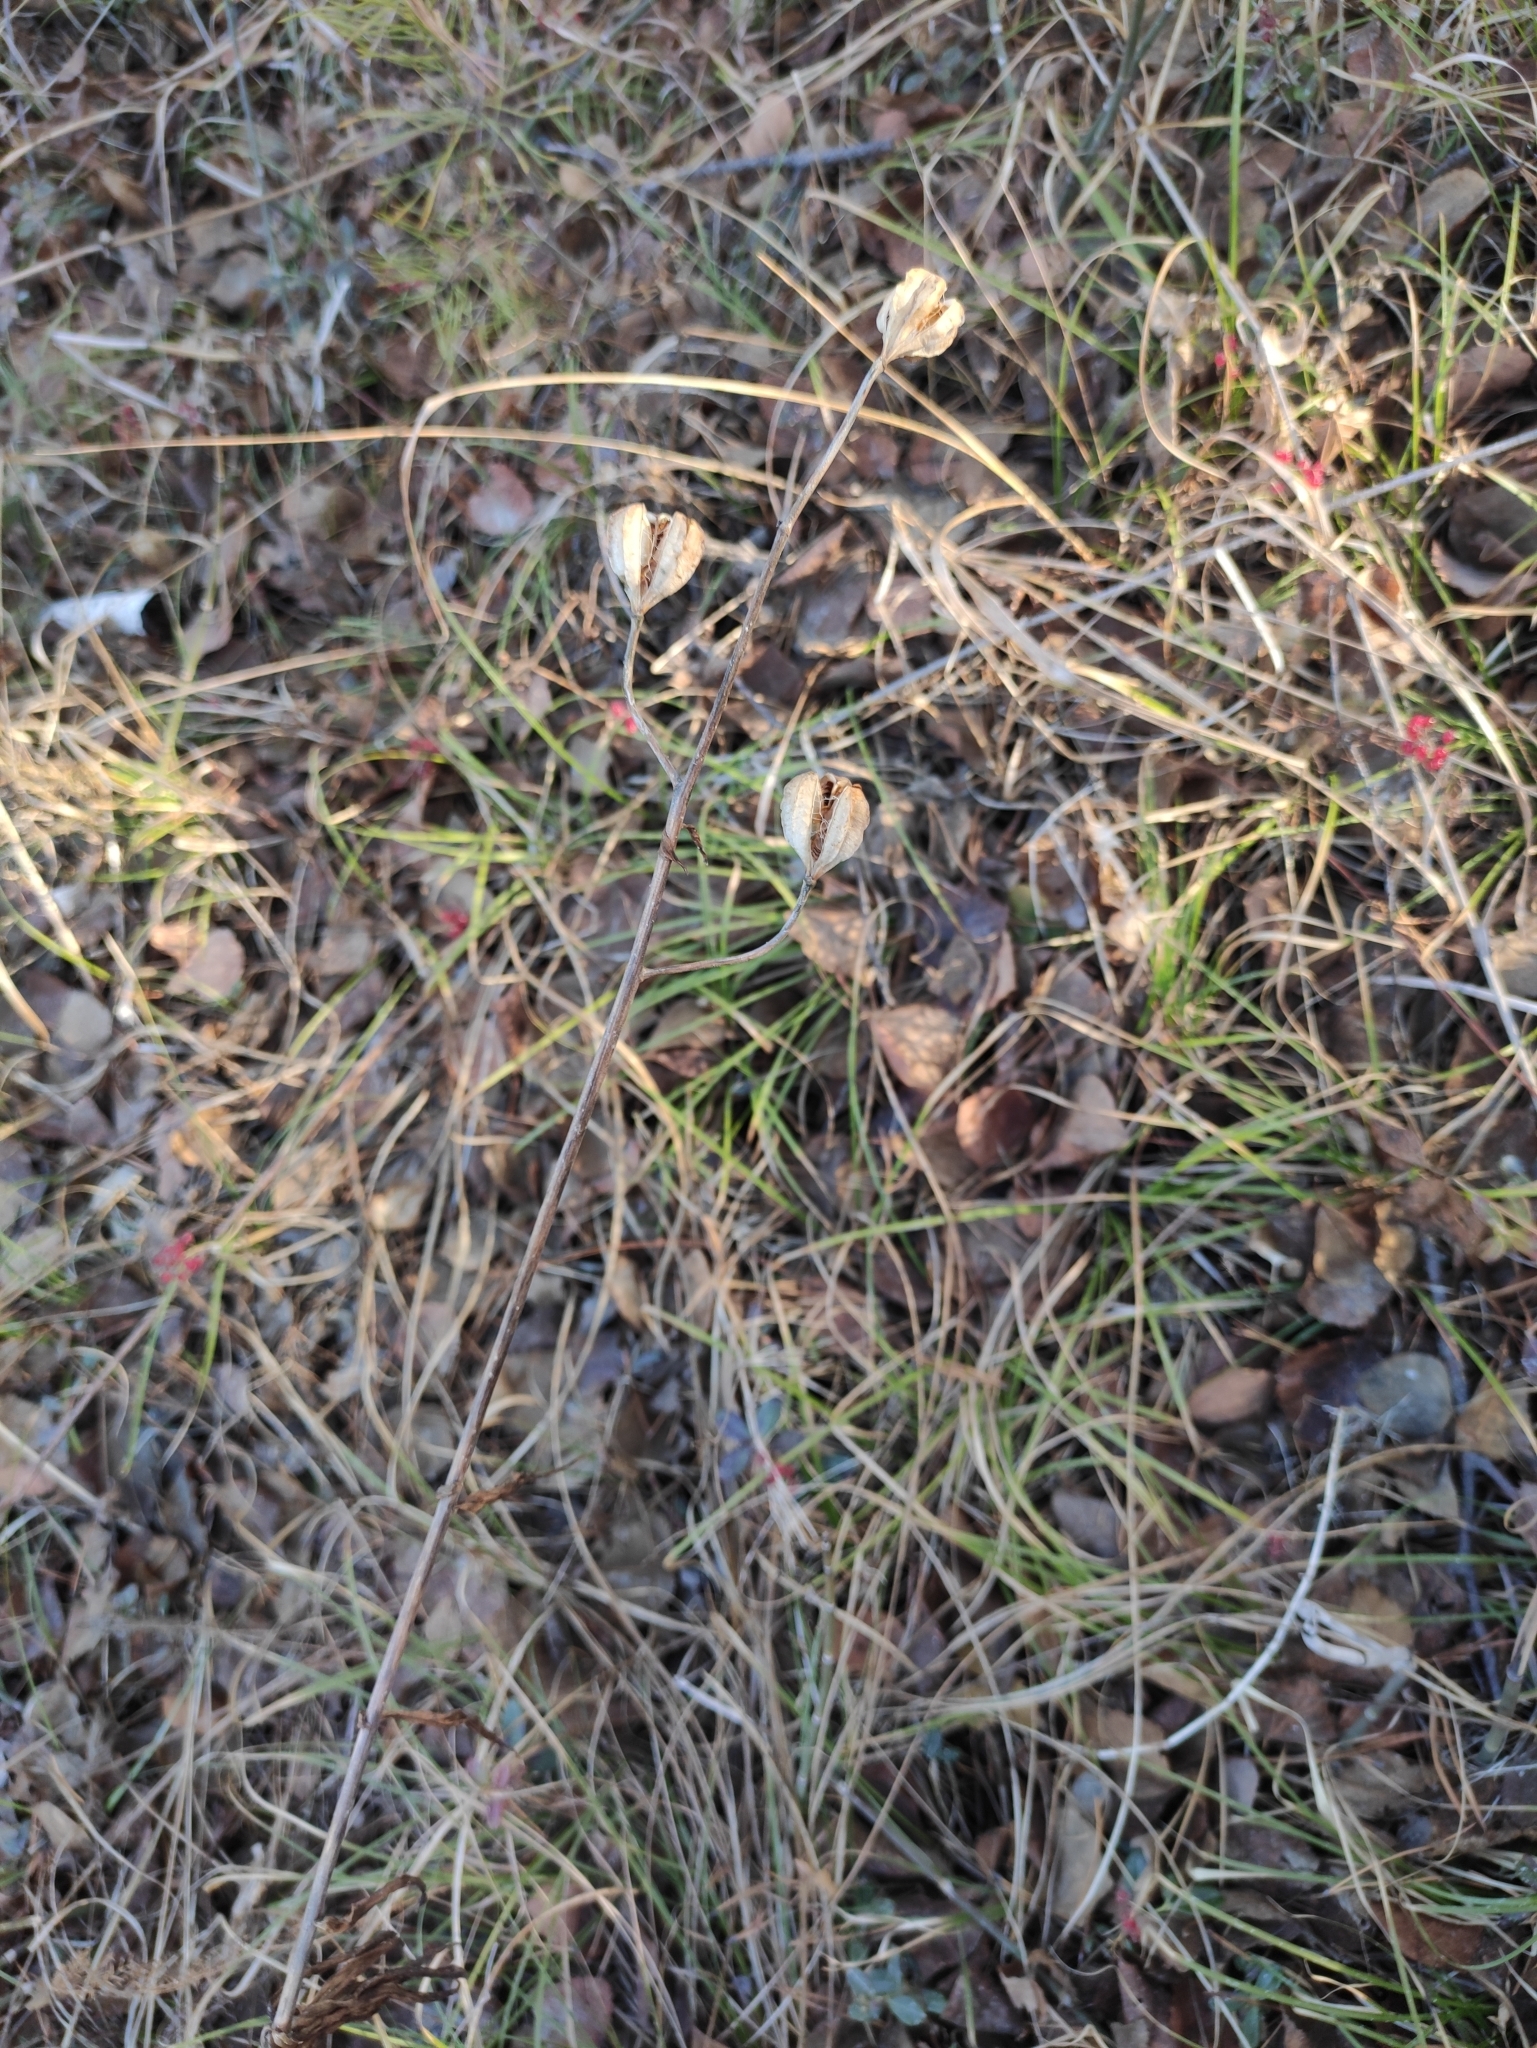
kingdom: Plantae
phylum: Tracheophyta
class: Liliopsida
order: Liliales
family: Liliaceae
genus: Lilium
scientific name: Lilium martagon
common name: Martagon lily
